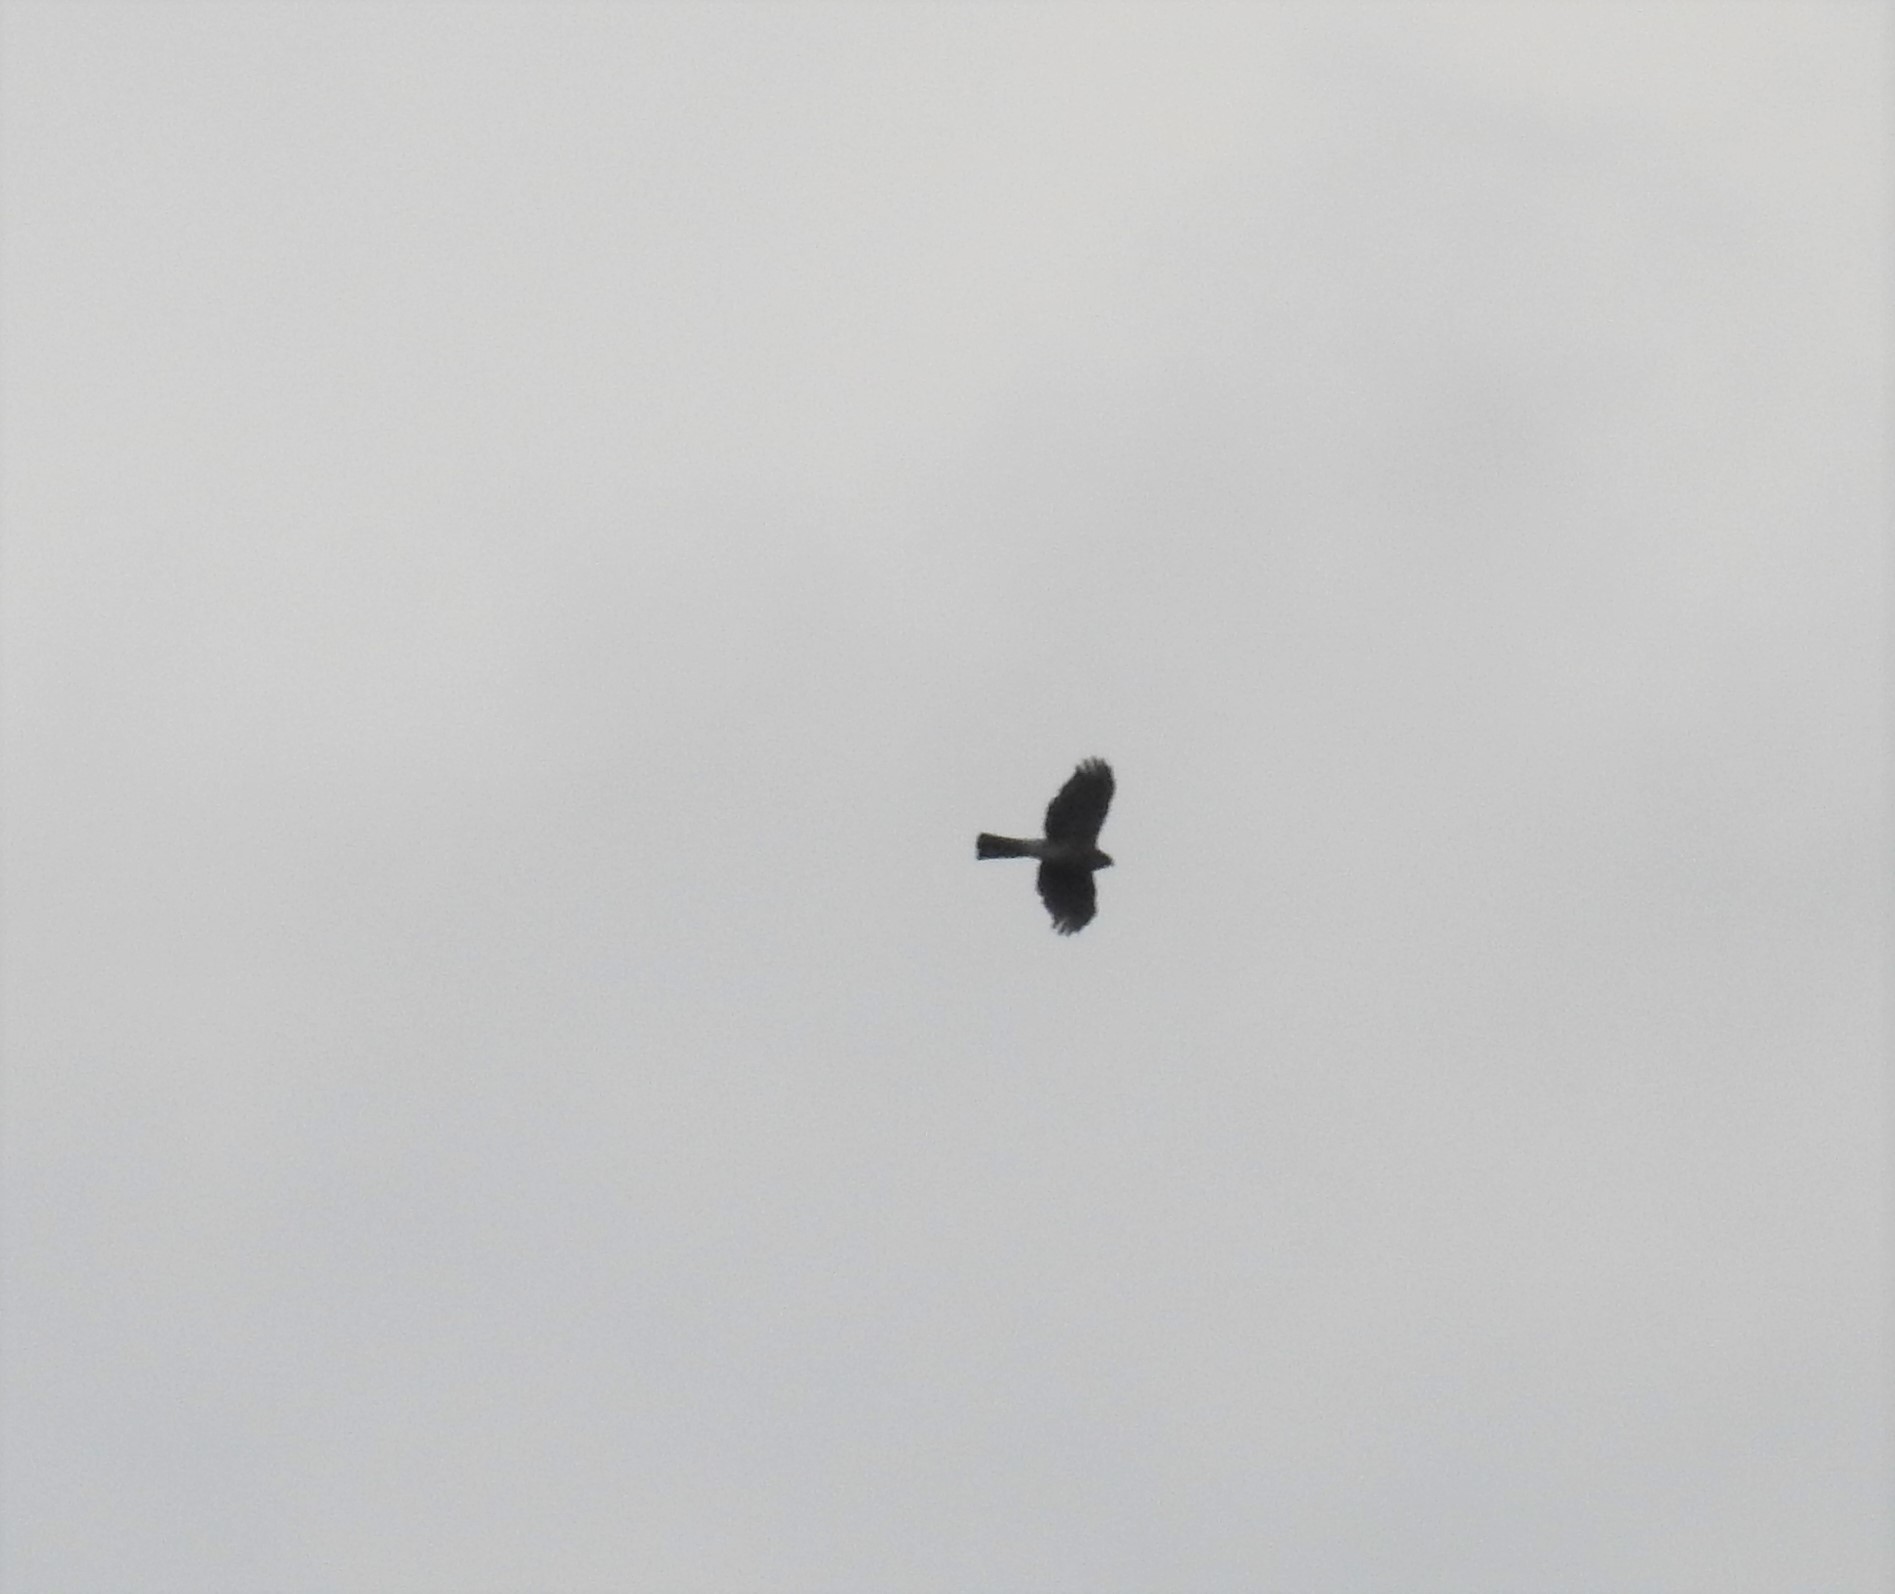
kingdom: Animalia
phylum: Chordata
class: Aves
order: Accipitriformes
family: Accipitridae
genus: Accipiter
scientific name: Accipiter striatus
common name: Sharp-shinned hawk
